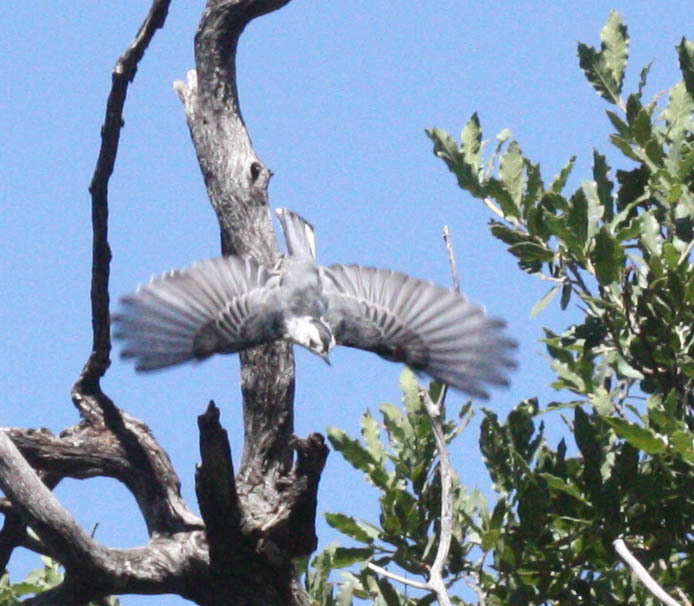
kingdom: Animalia
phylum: Chordata
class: Aves
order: Passeriformes
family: Sittidae
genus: Sitta
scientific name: Sitta carolinensis
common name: White-breasted nuthatch
